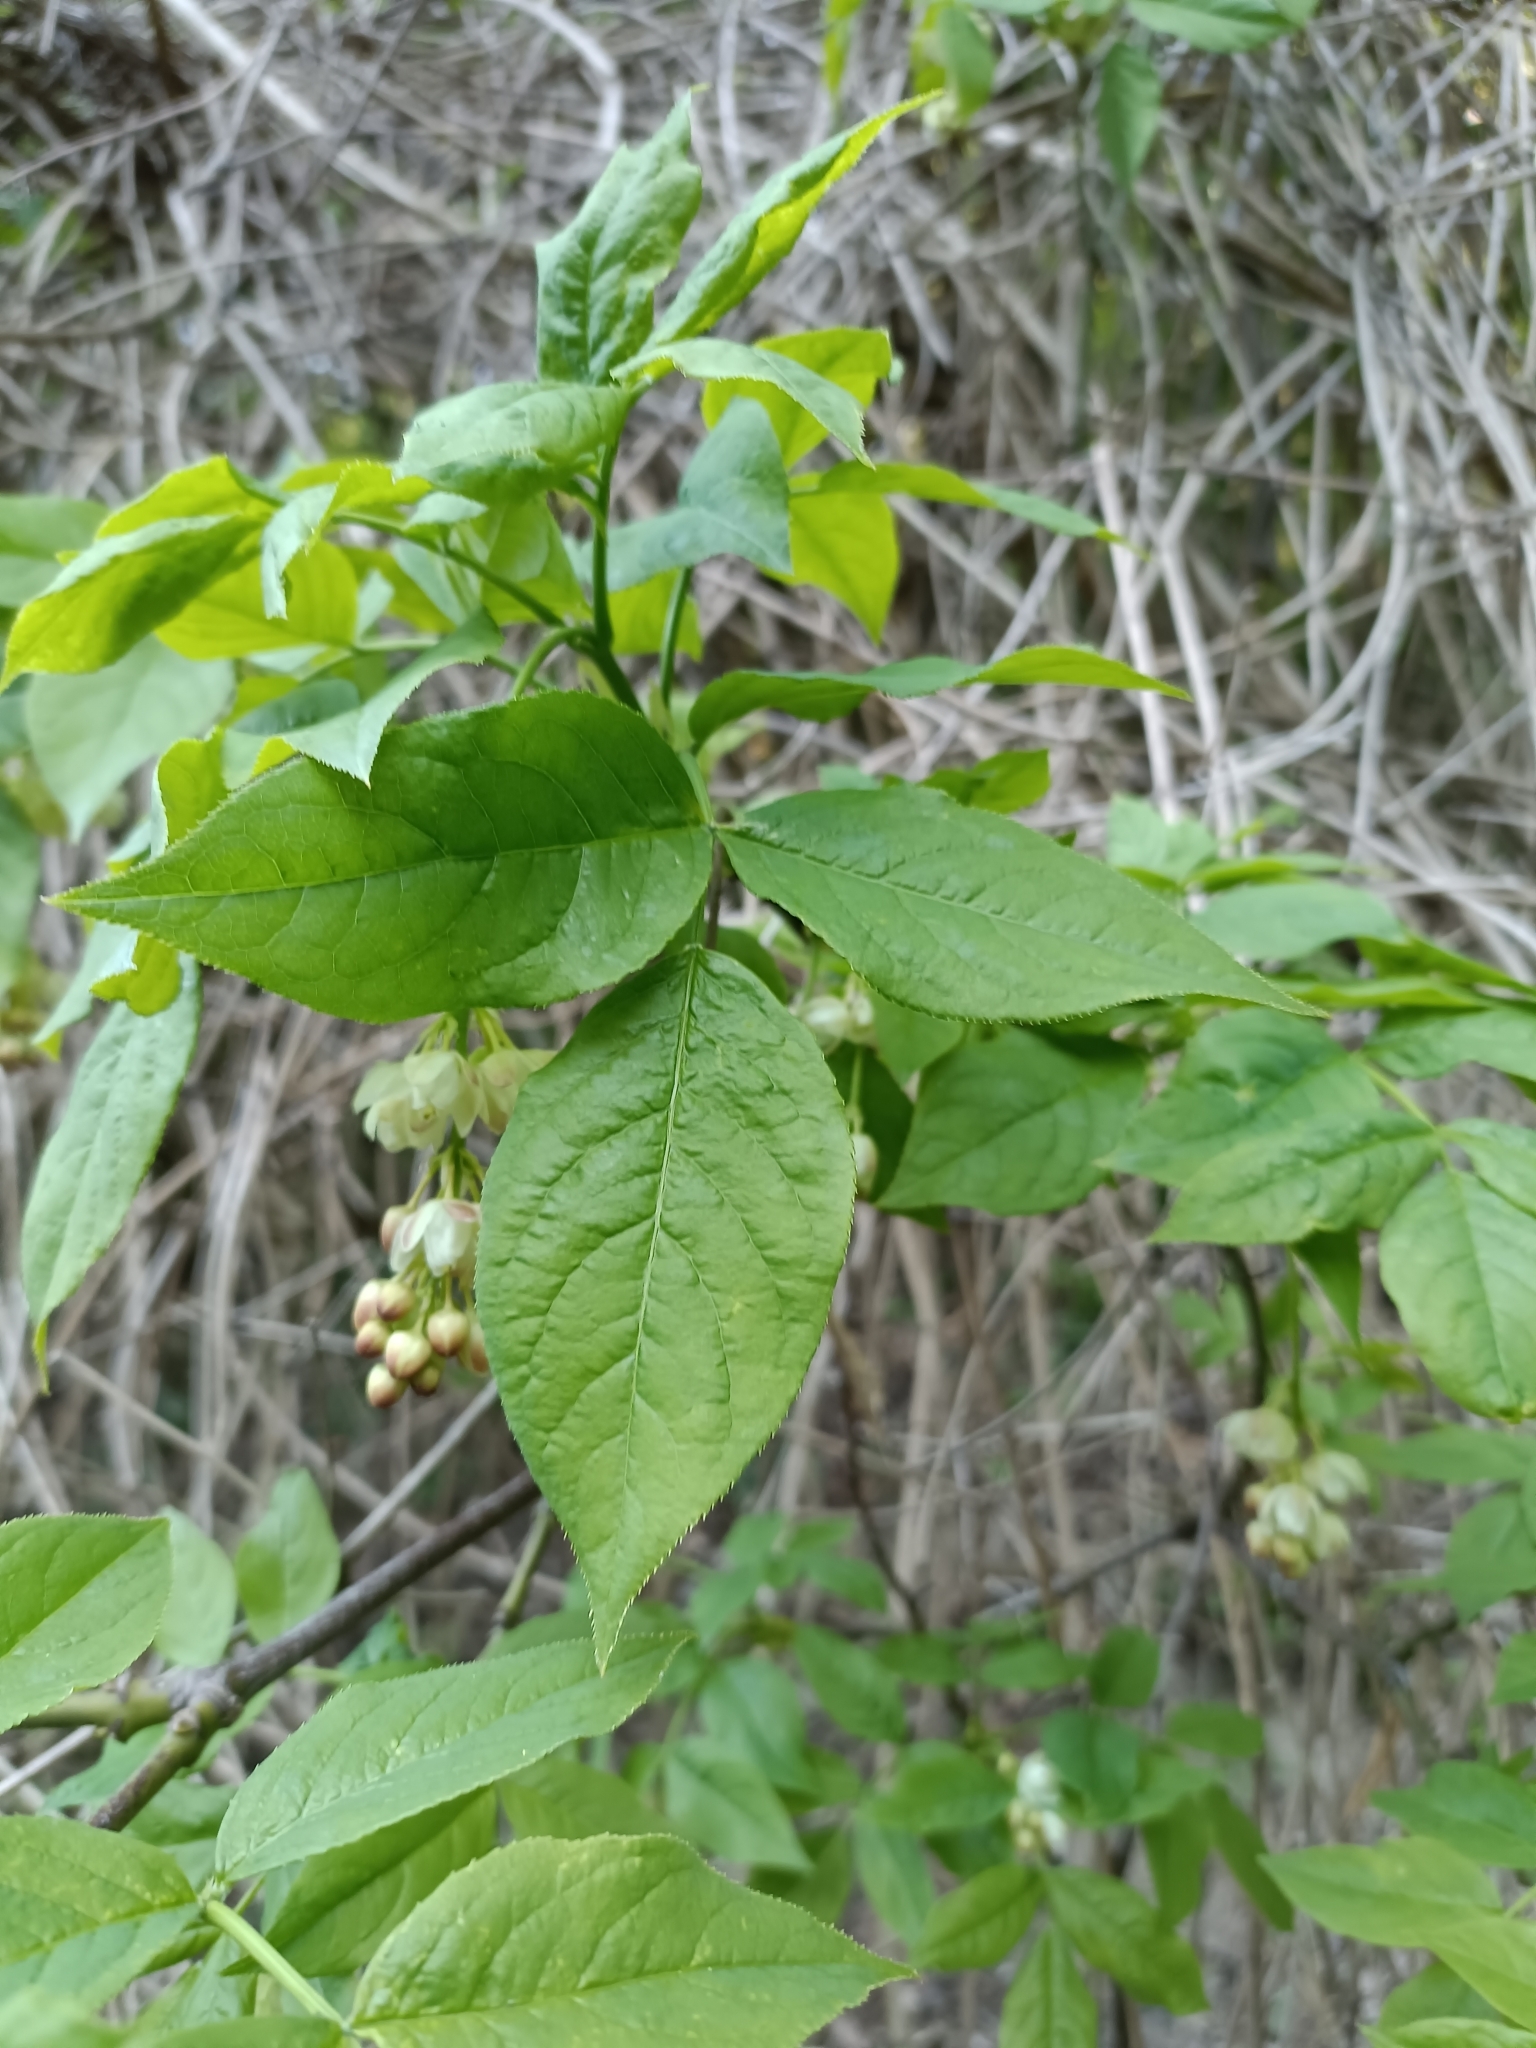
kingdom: Plantae
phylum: Tracheophyta
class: Magnoliopsida
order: Crossosomatales
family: Staphyleaceae
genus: Staphylea
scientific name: Staphylea pinnata
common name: Bladdernut
